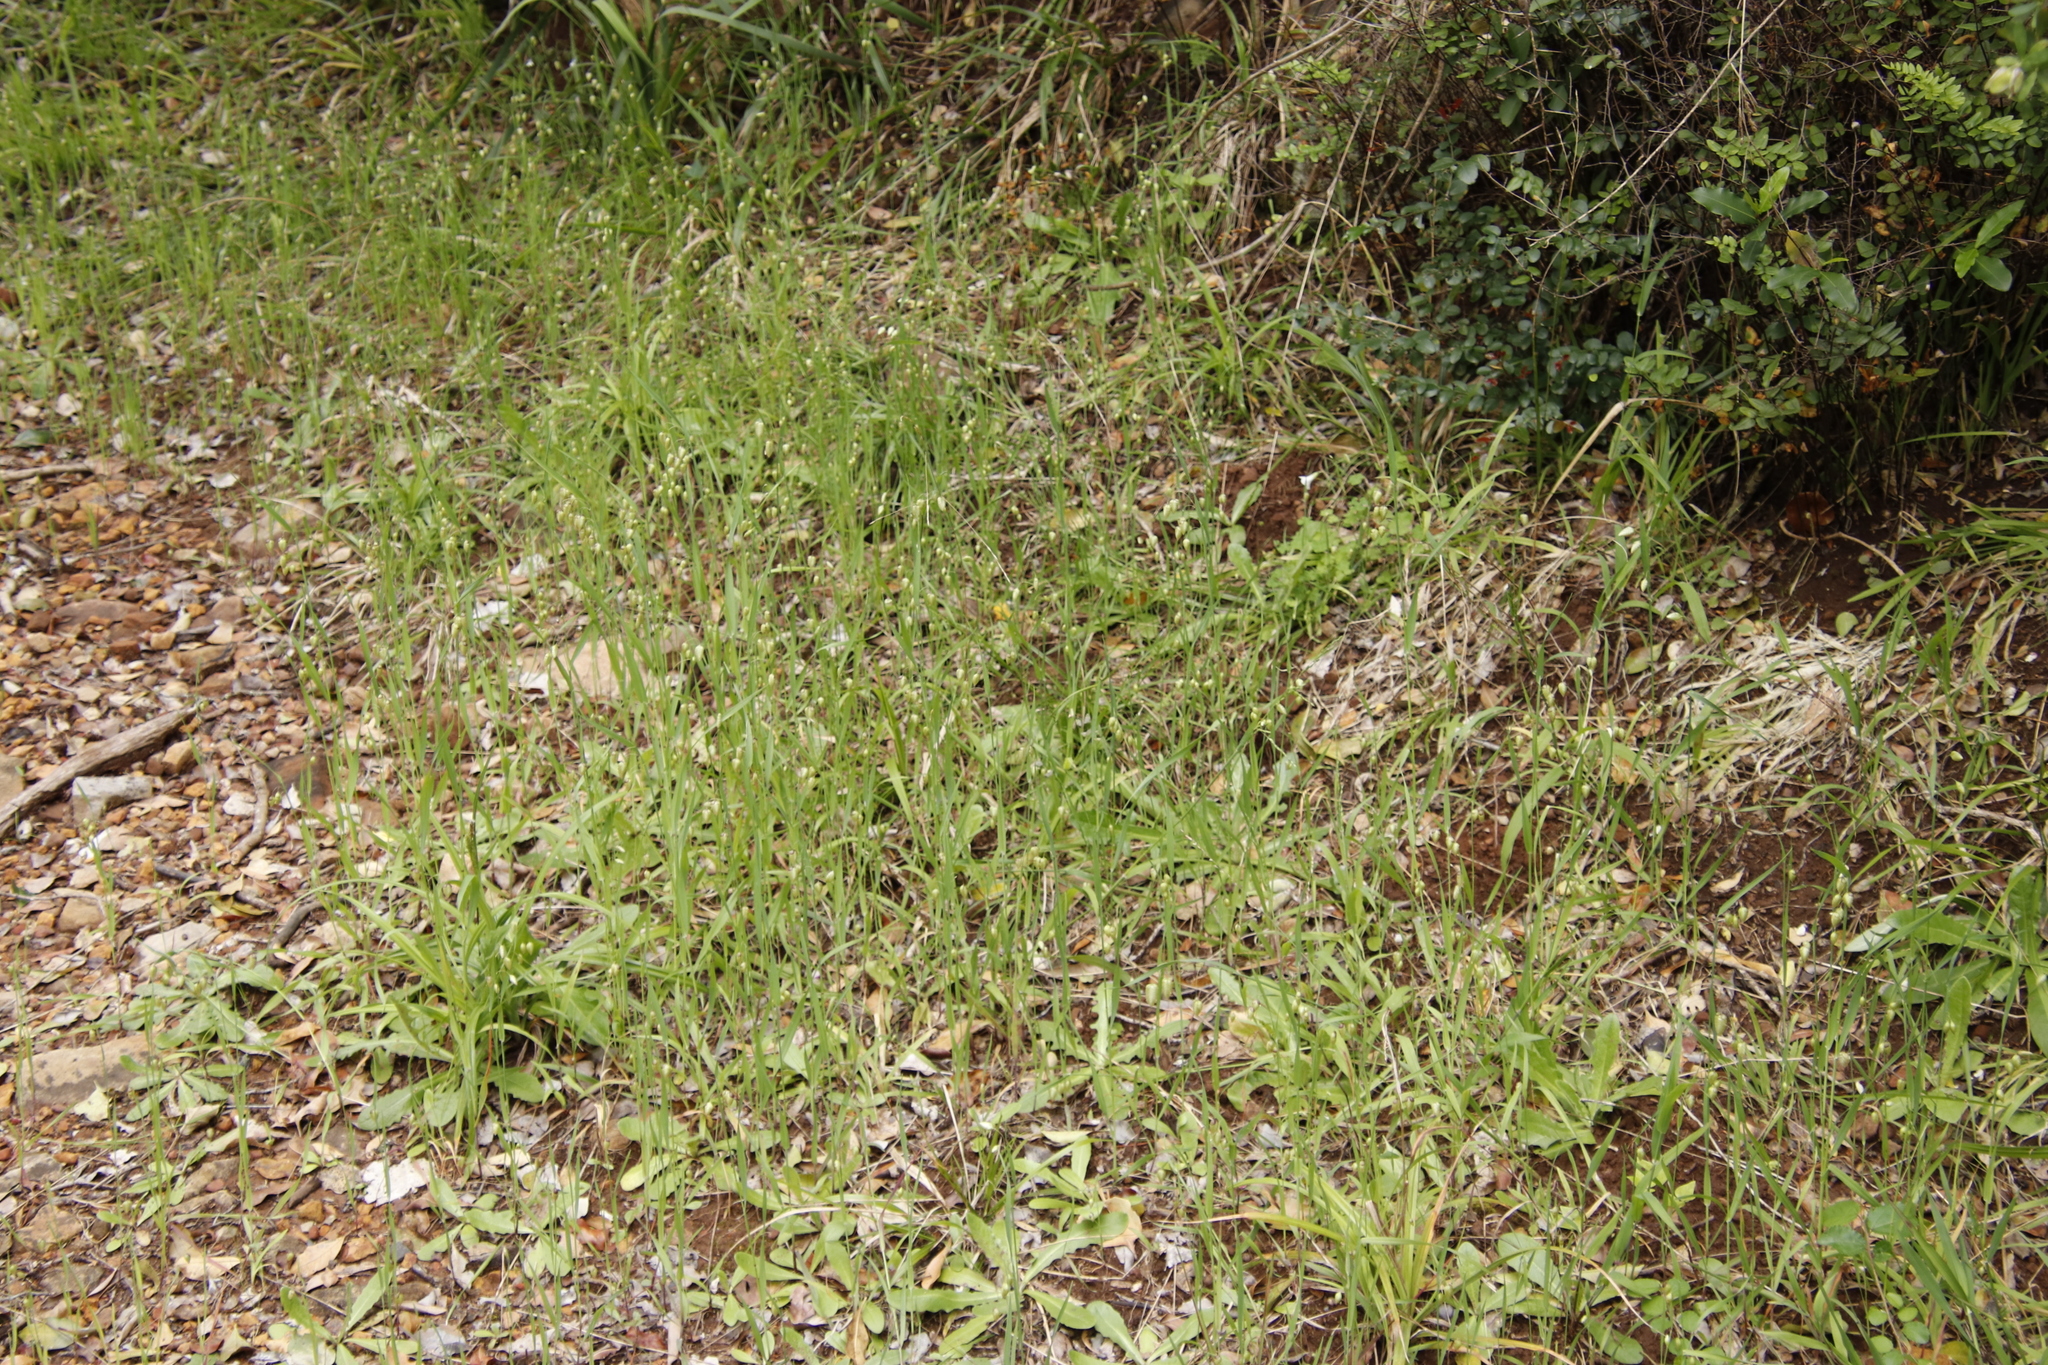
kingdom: Plantae
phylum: Tracheophyta
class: Liliopsida
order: Poales
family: Poaceae
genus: Briza
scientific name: Briza maxima
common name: Big quakinggrass
